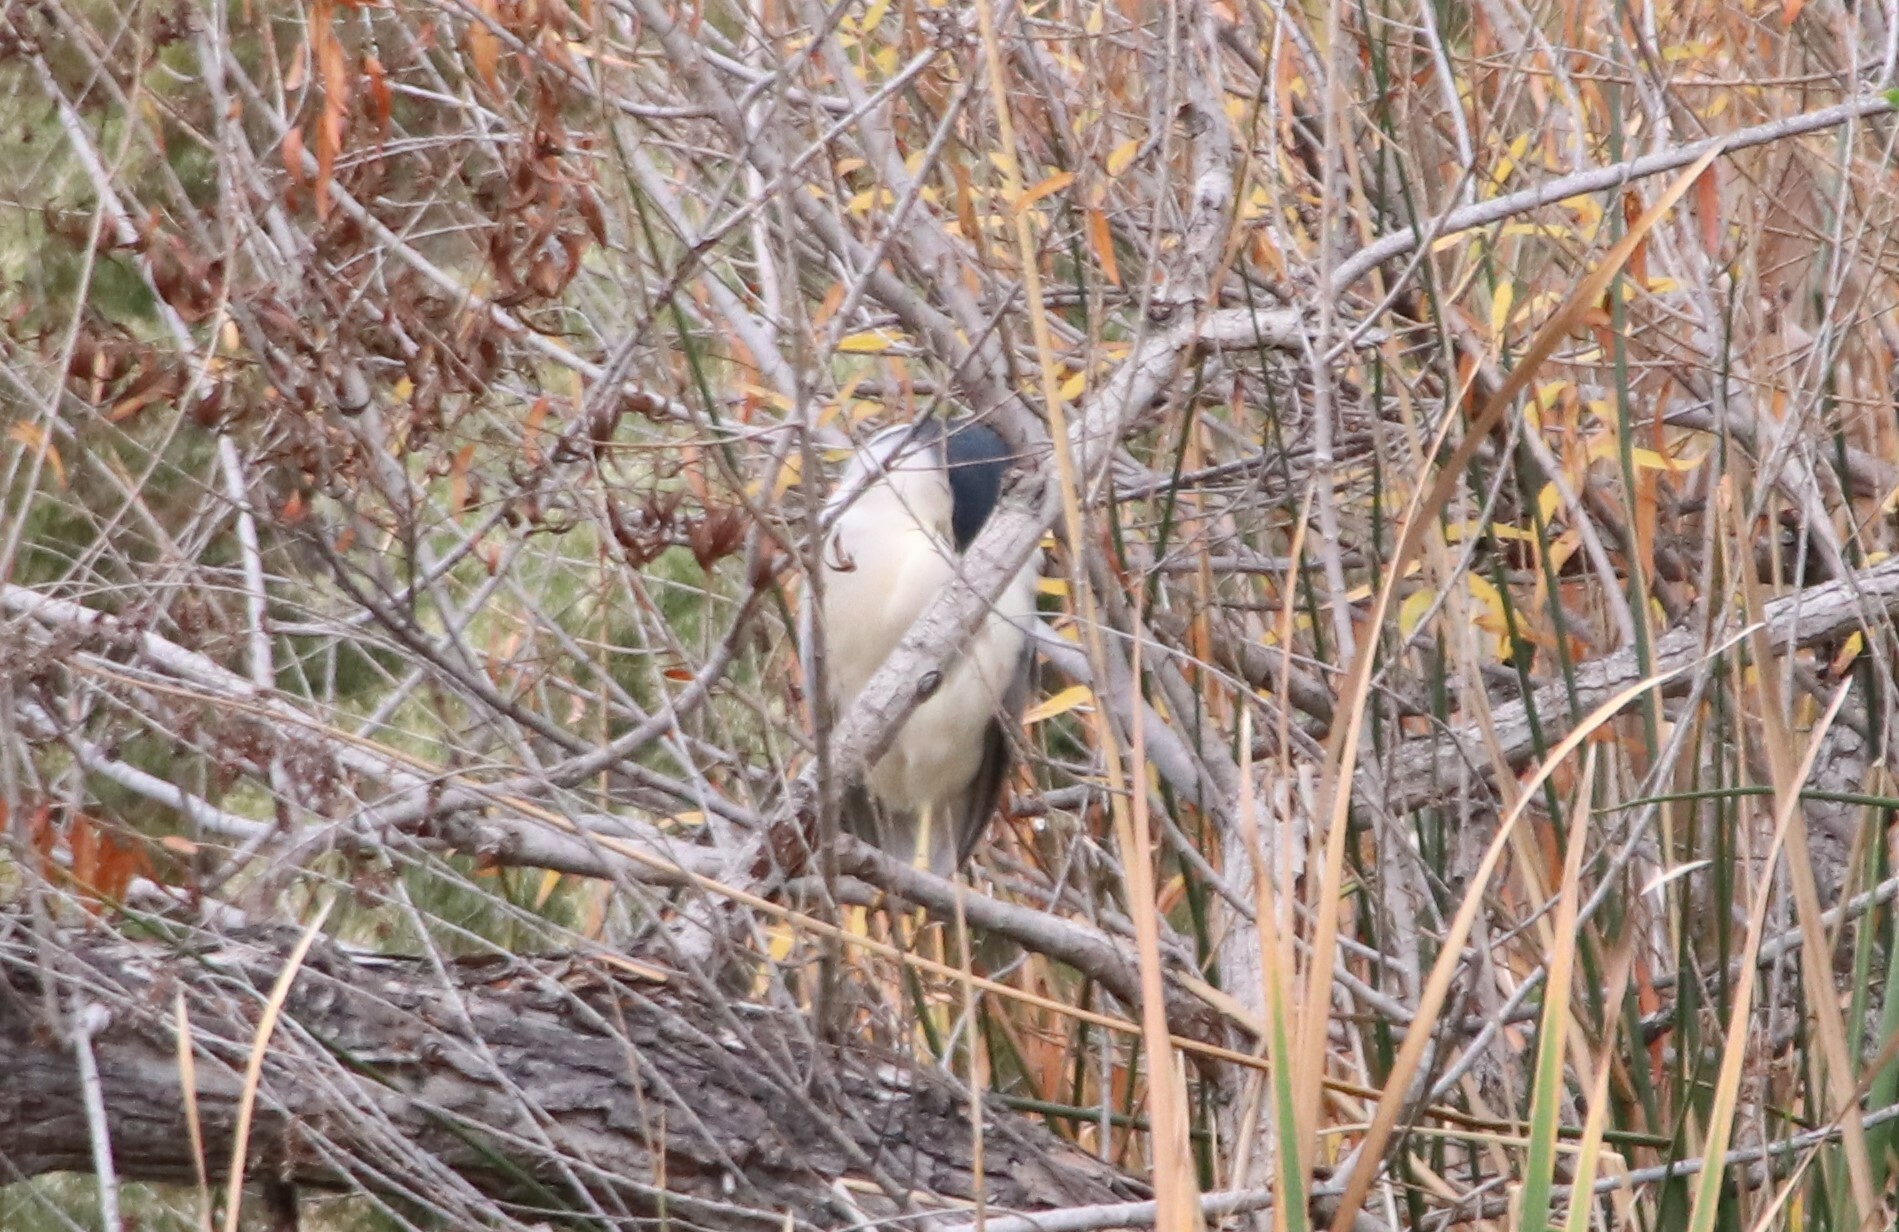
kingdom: Animalia
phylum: Chordata
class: Aves
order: Pelecaniformes
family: Ardeidae
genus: Nycticorax
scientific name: Nycticorax nycticorax
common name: Black-crowned night heron
